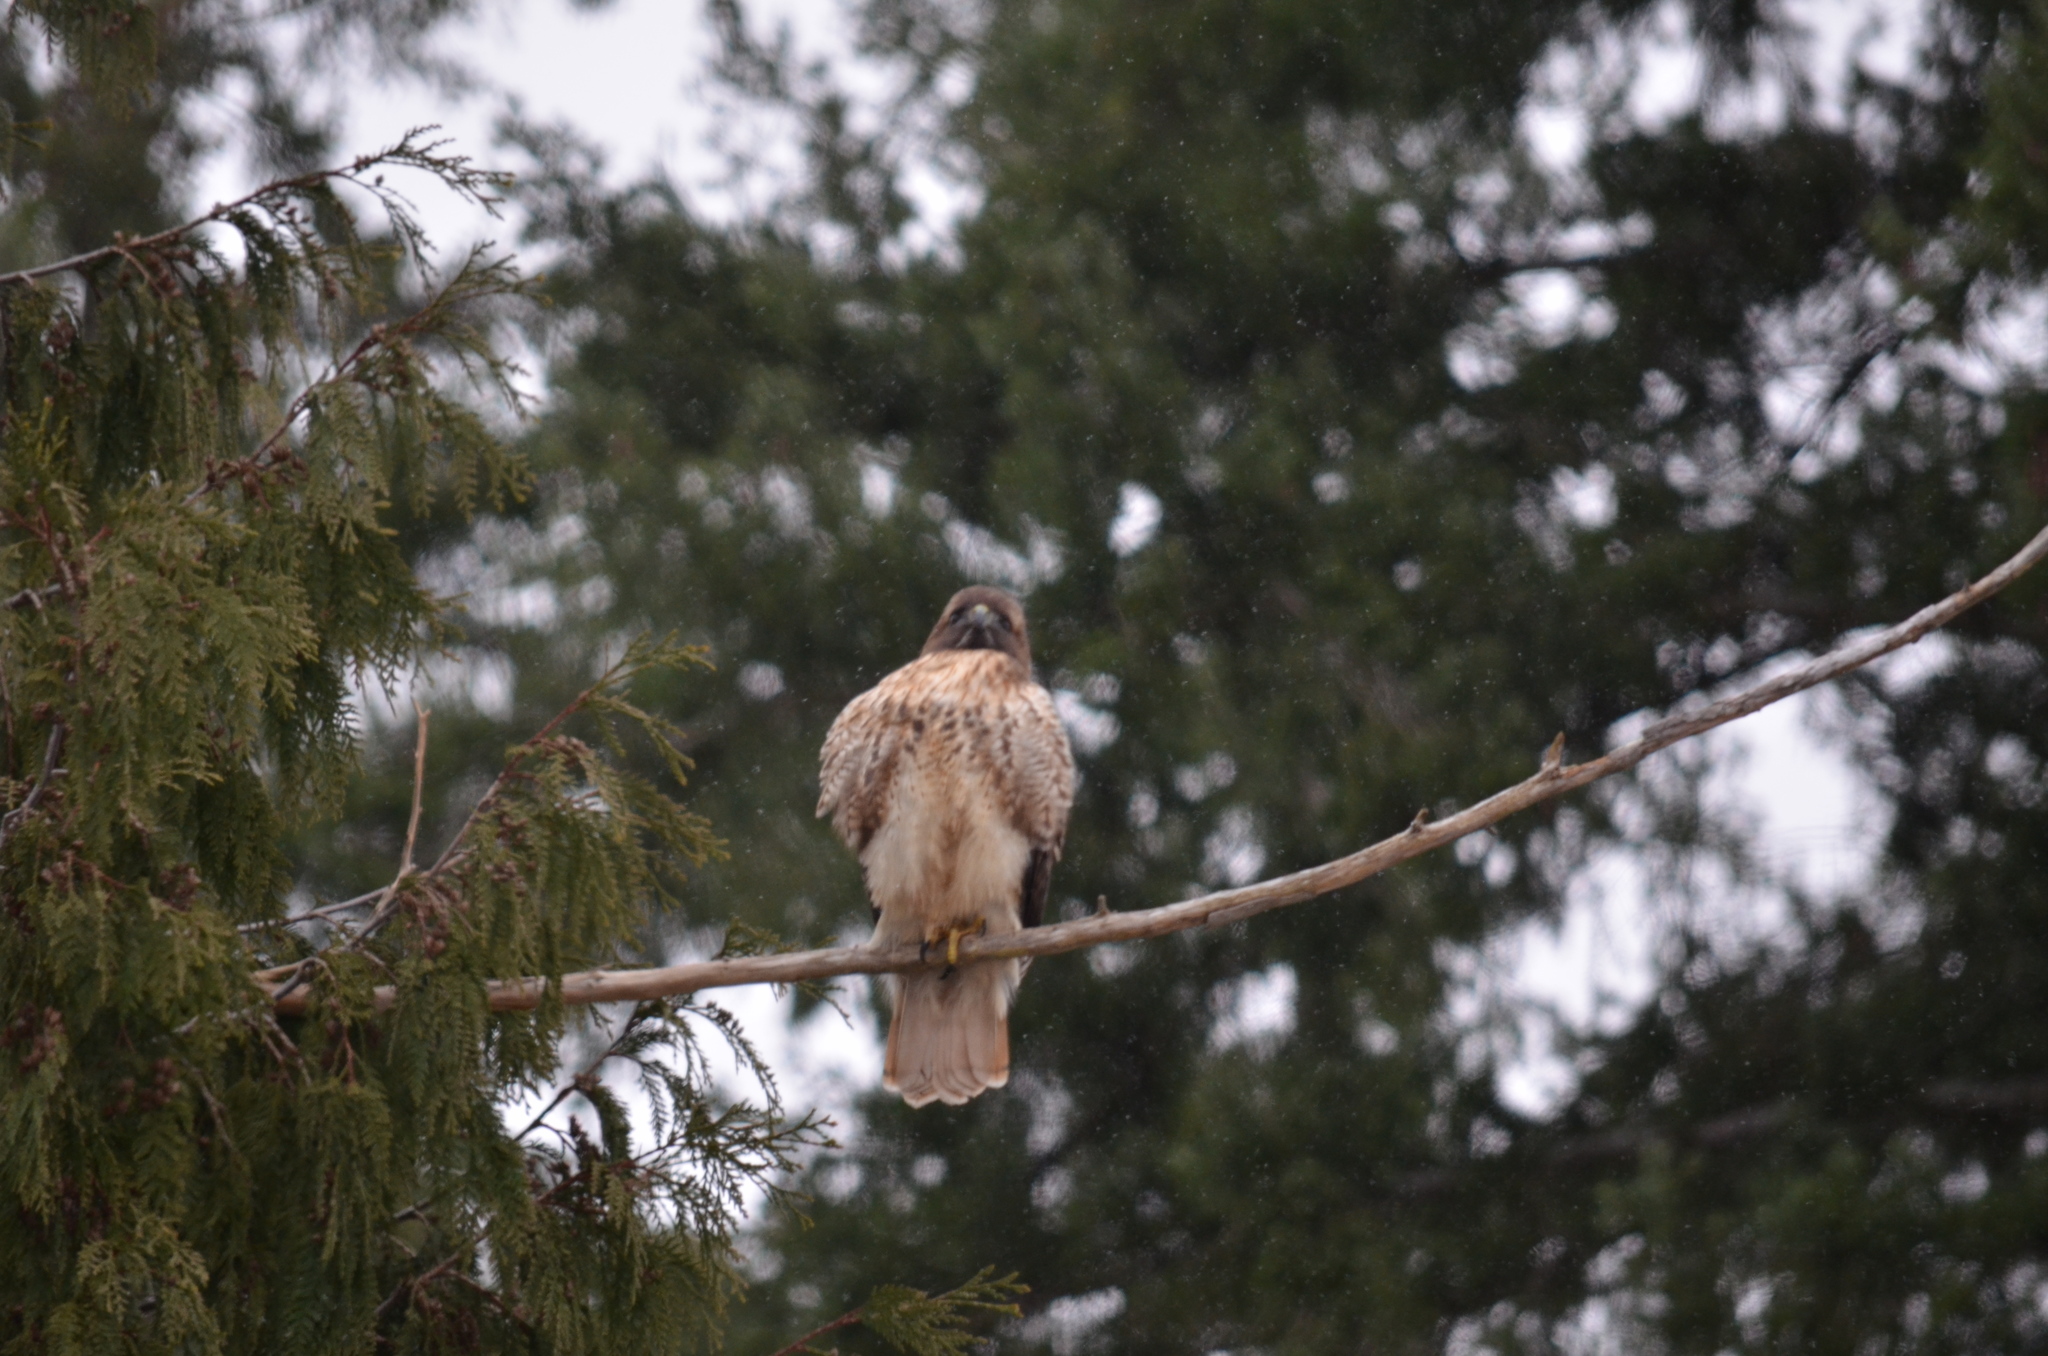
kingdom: Animalia
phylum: Chordata
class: Aves
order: Accipitriformes
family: Accipitridae
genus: Buteo
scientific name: Buteo jamaicensis
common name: Red-tailed hawk
